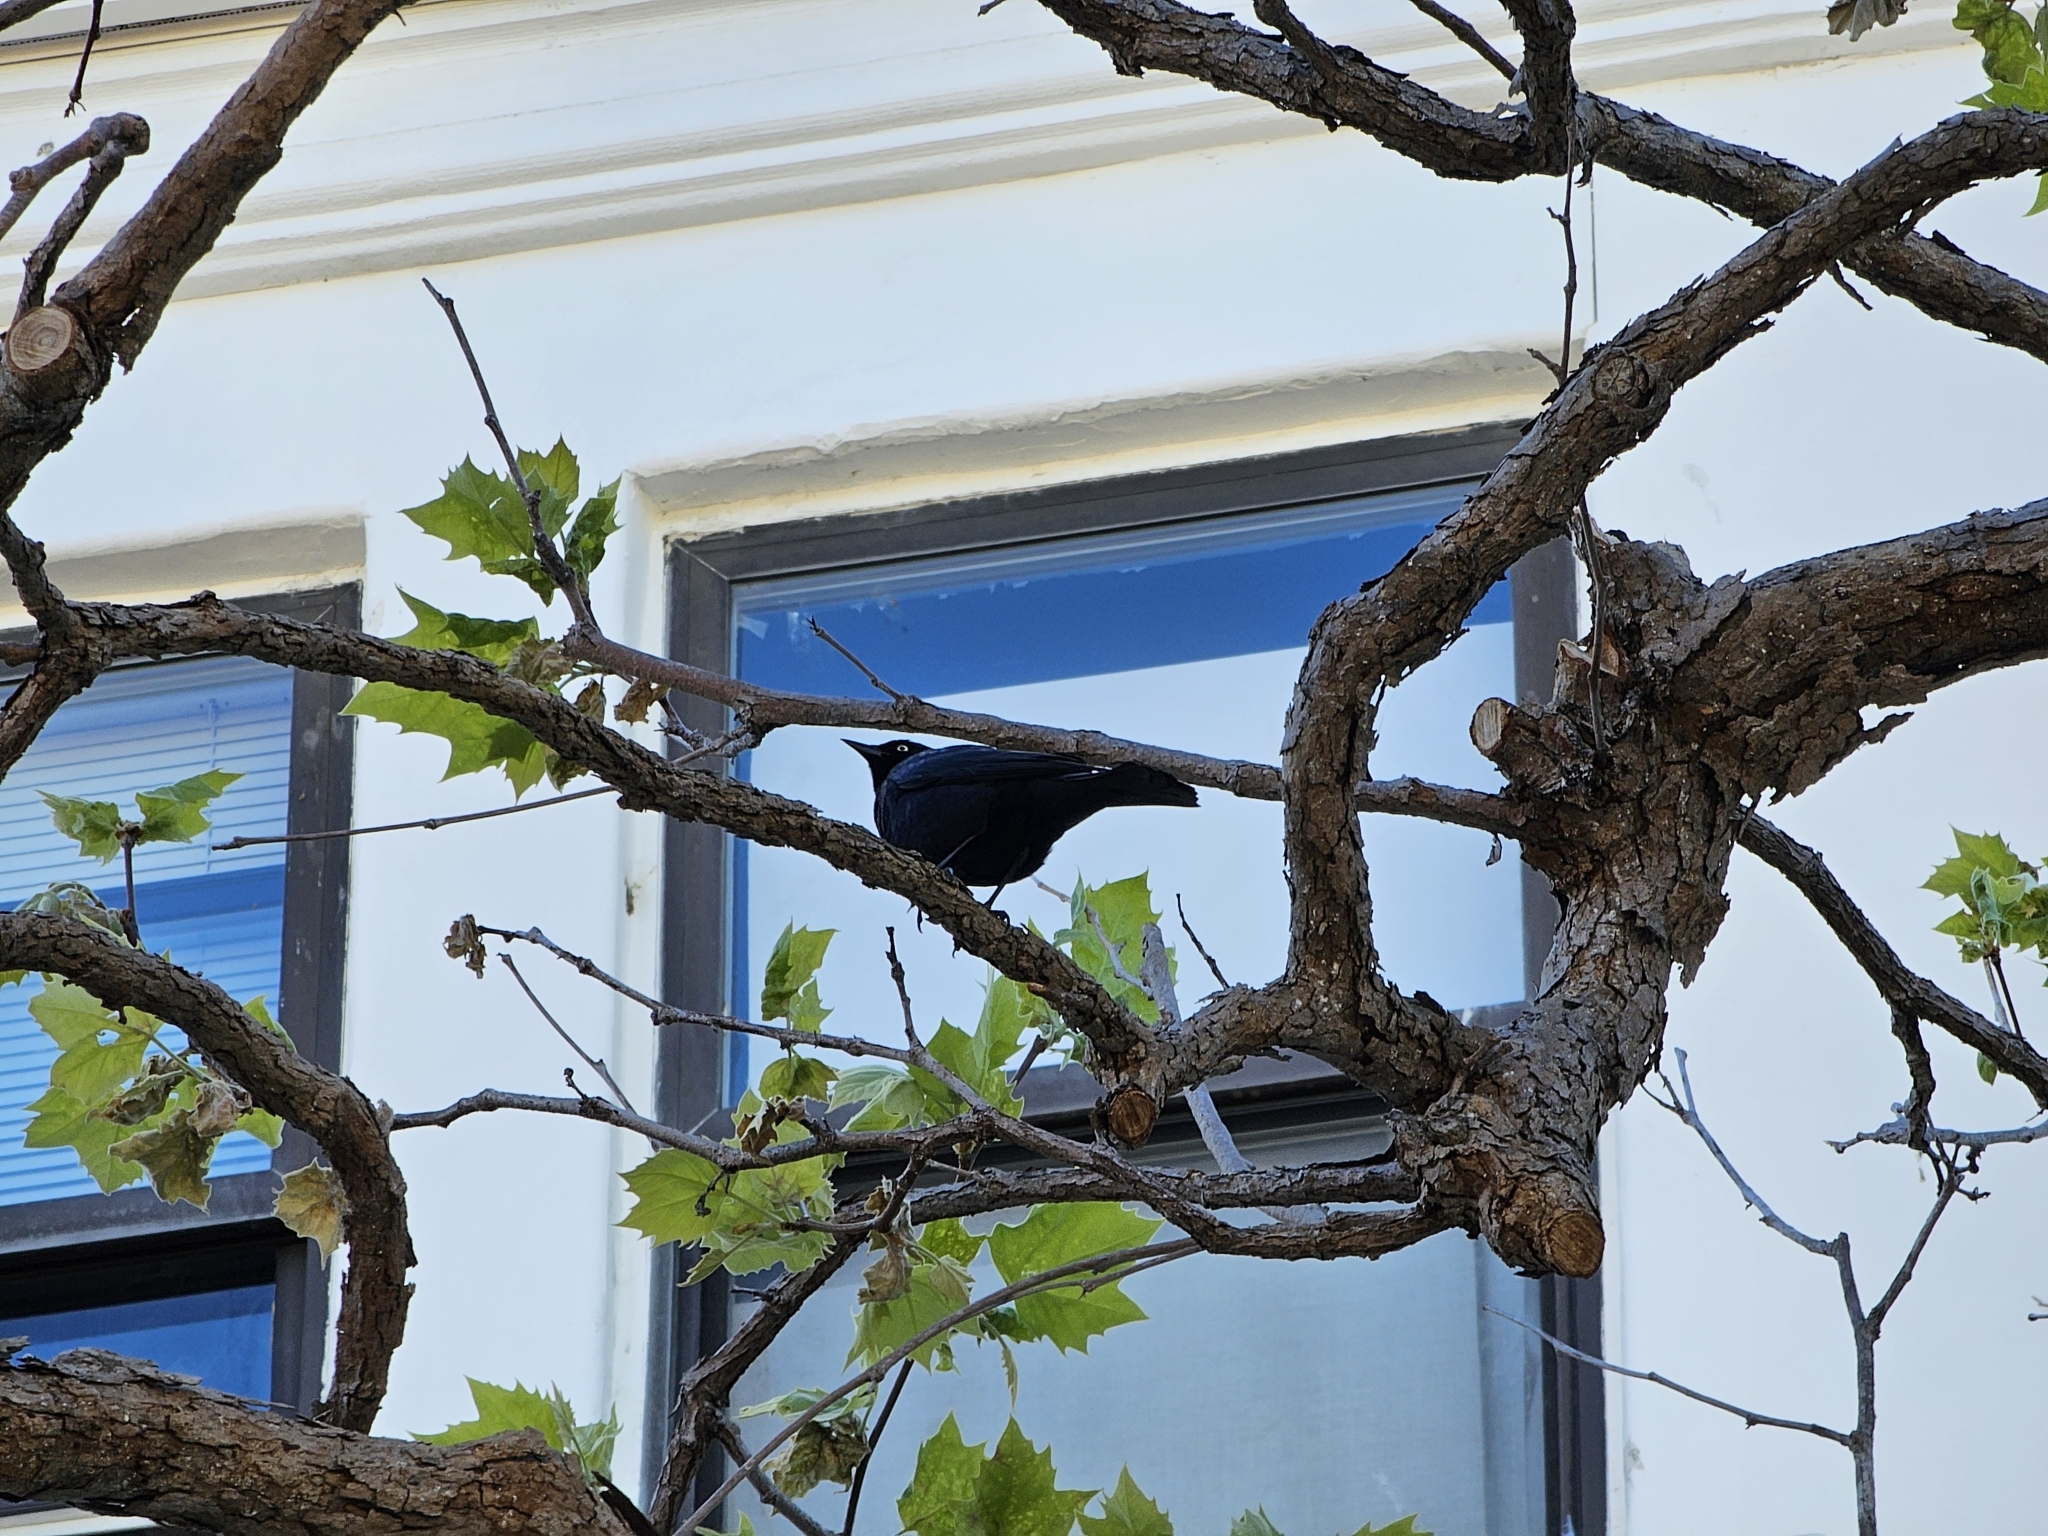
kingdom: Animalia
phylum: Chordata
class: Aves
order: Passeriformes
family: Icteridae
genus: Euphagus
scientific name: Euphagus cyanocephalus
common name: Brewer's blackbird
